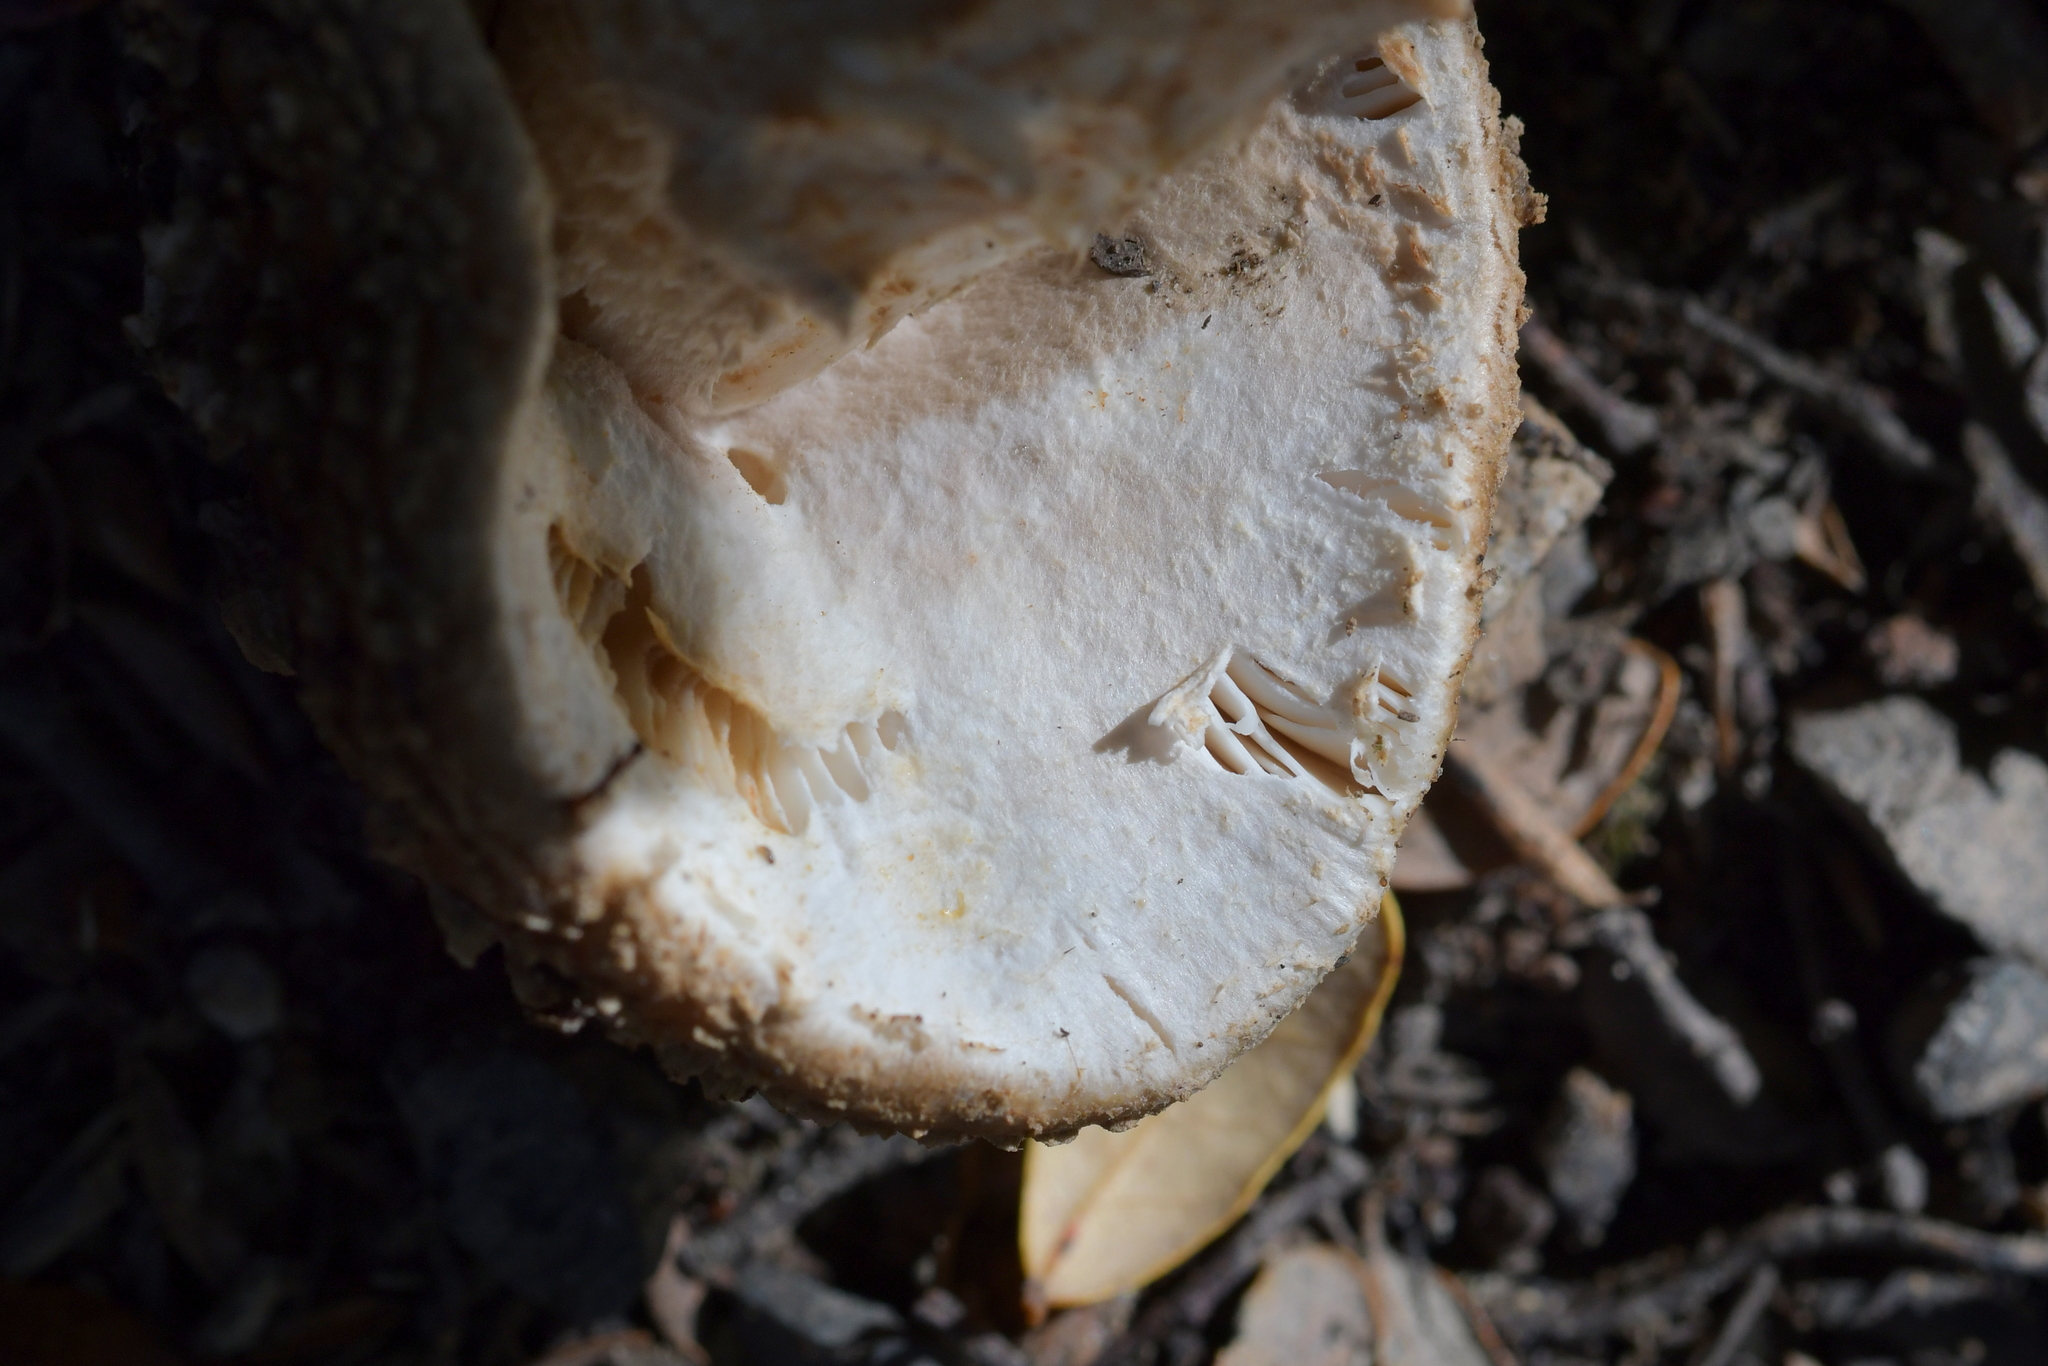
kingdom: Fungi
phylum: Basidiomycota
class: Agaricomycetes
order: Agaricales
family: Amanitaceae
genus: Amanita
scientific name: Amanita nothofagi
